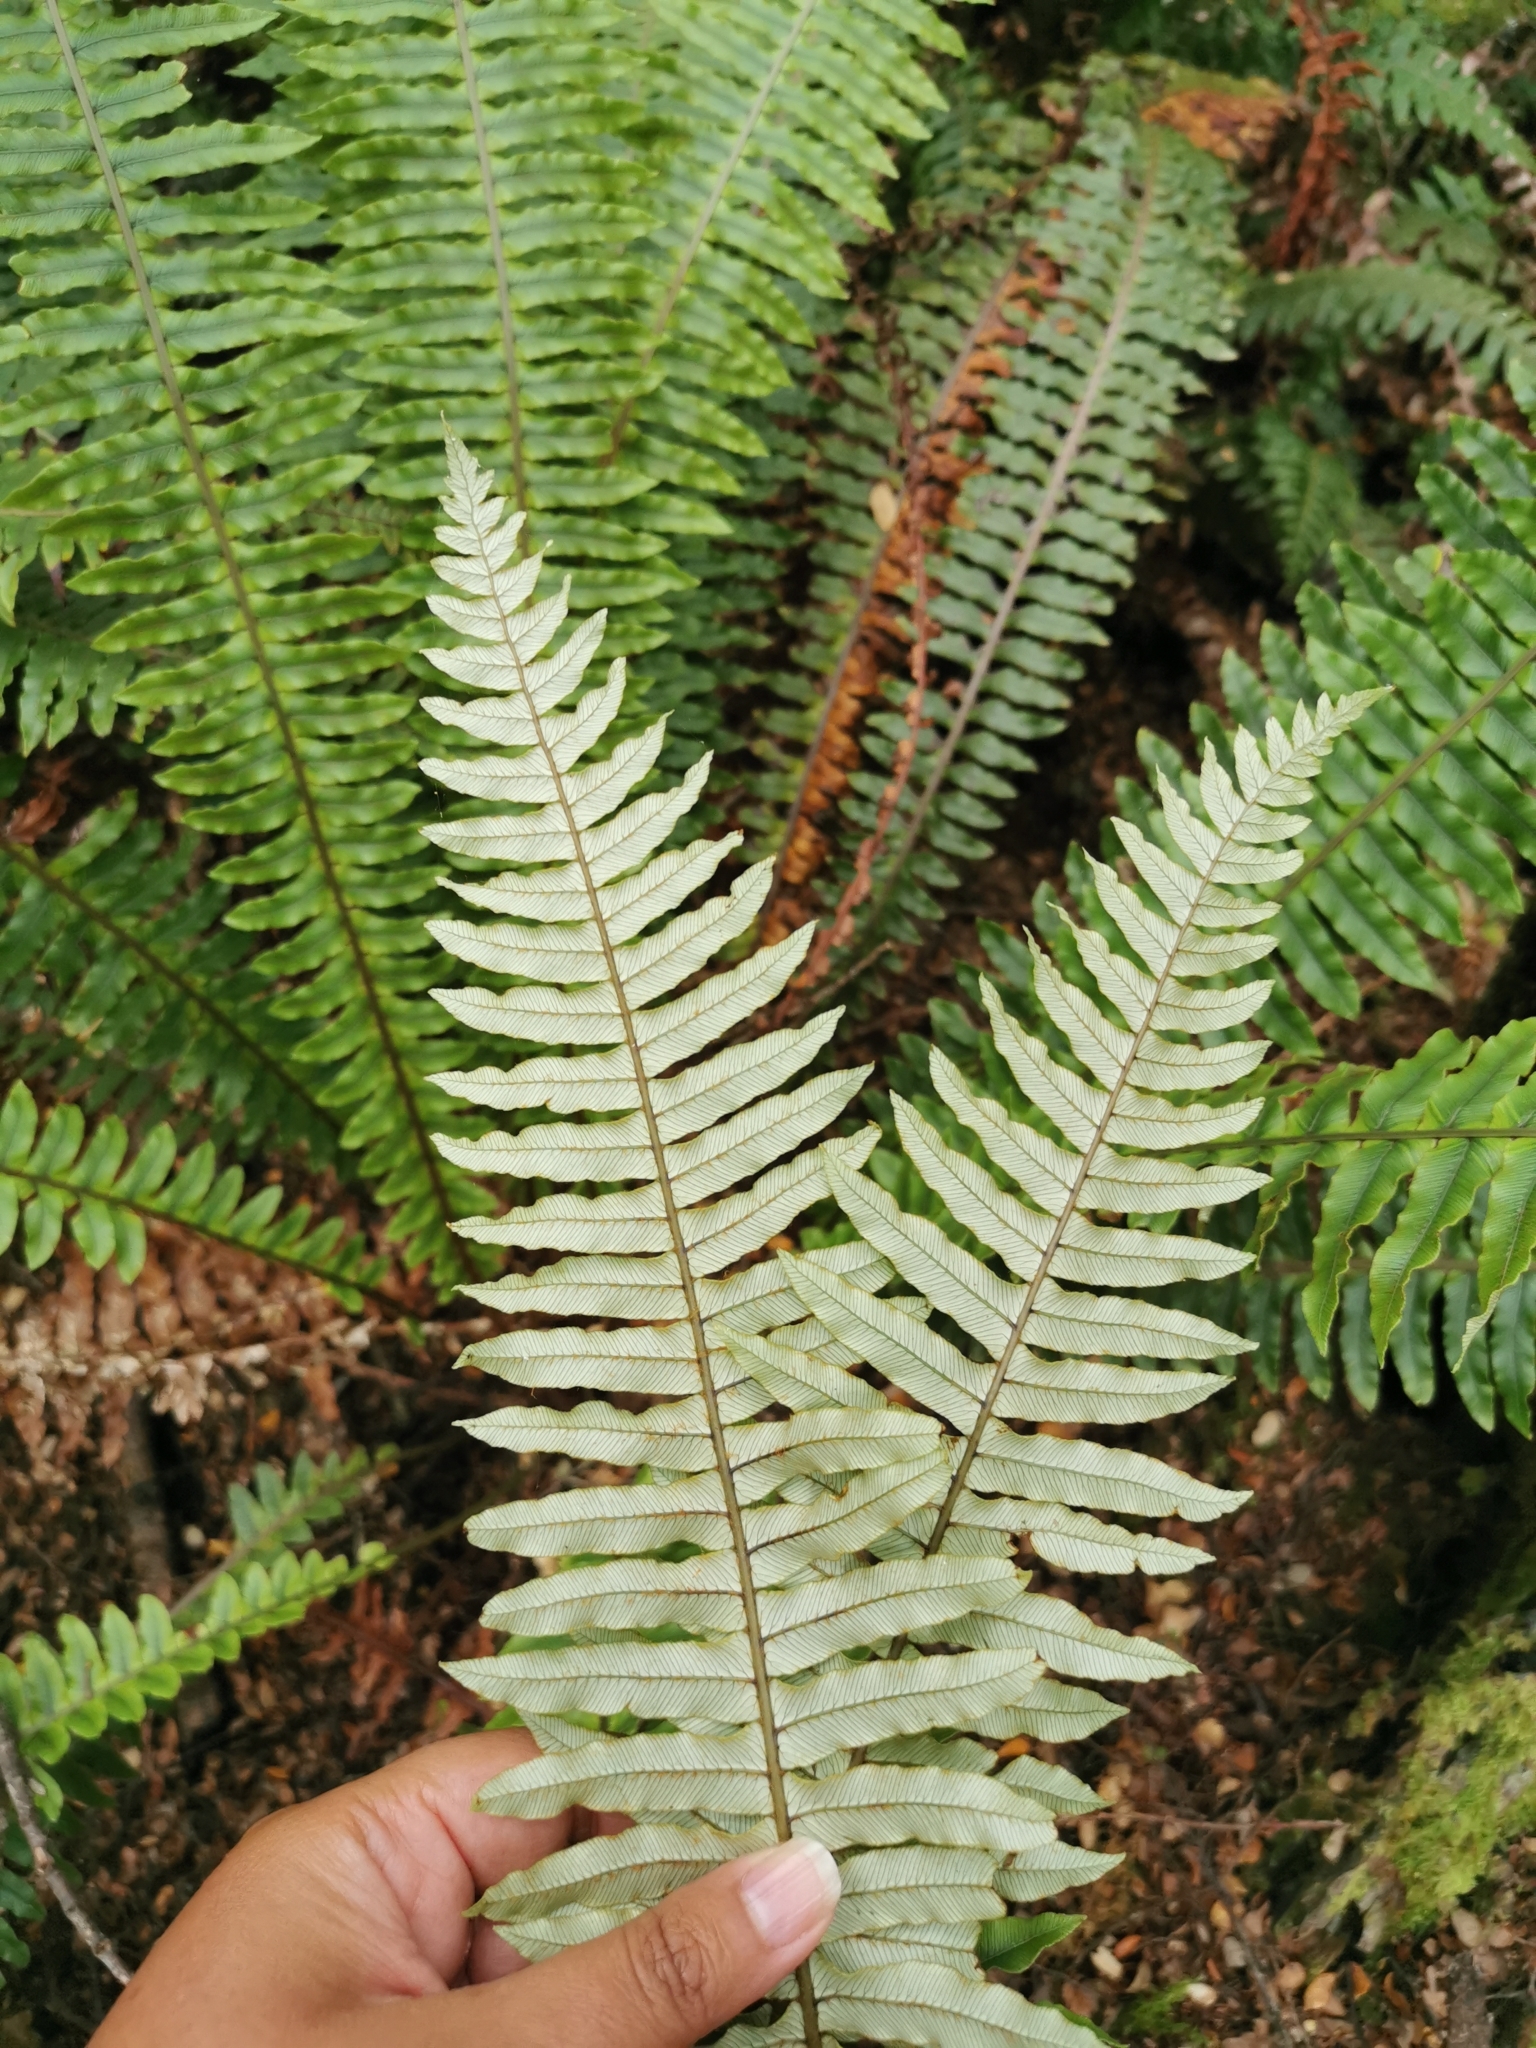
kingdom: Plantae
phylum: Tracheophyta
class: Polypodiopsida
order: Polypodiales
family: Blechnaceae
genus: Lomaria
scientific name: Lomaria discolor
